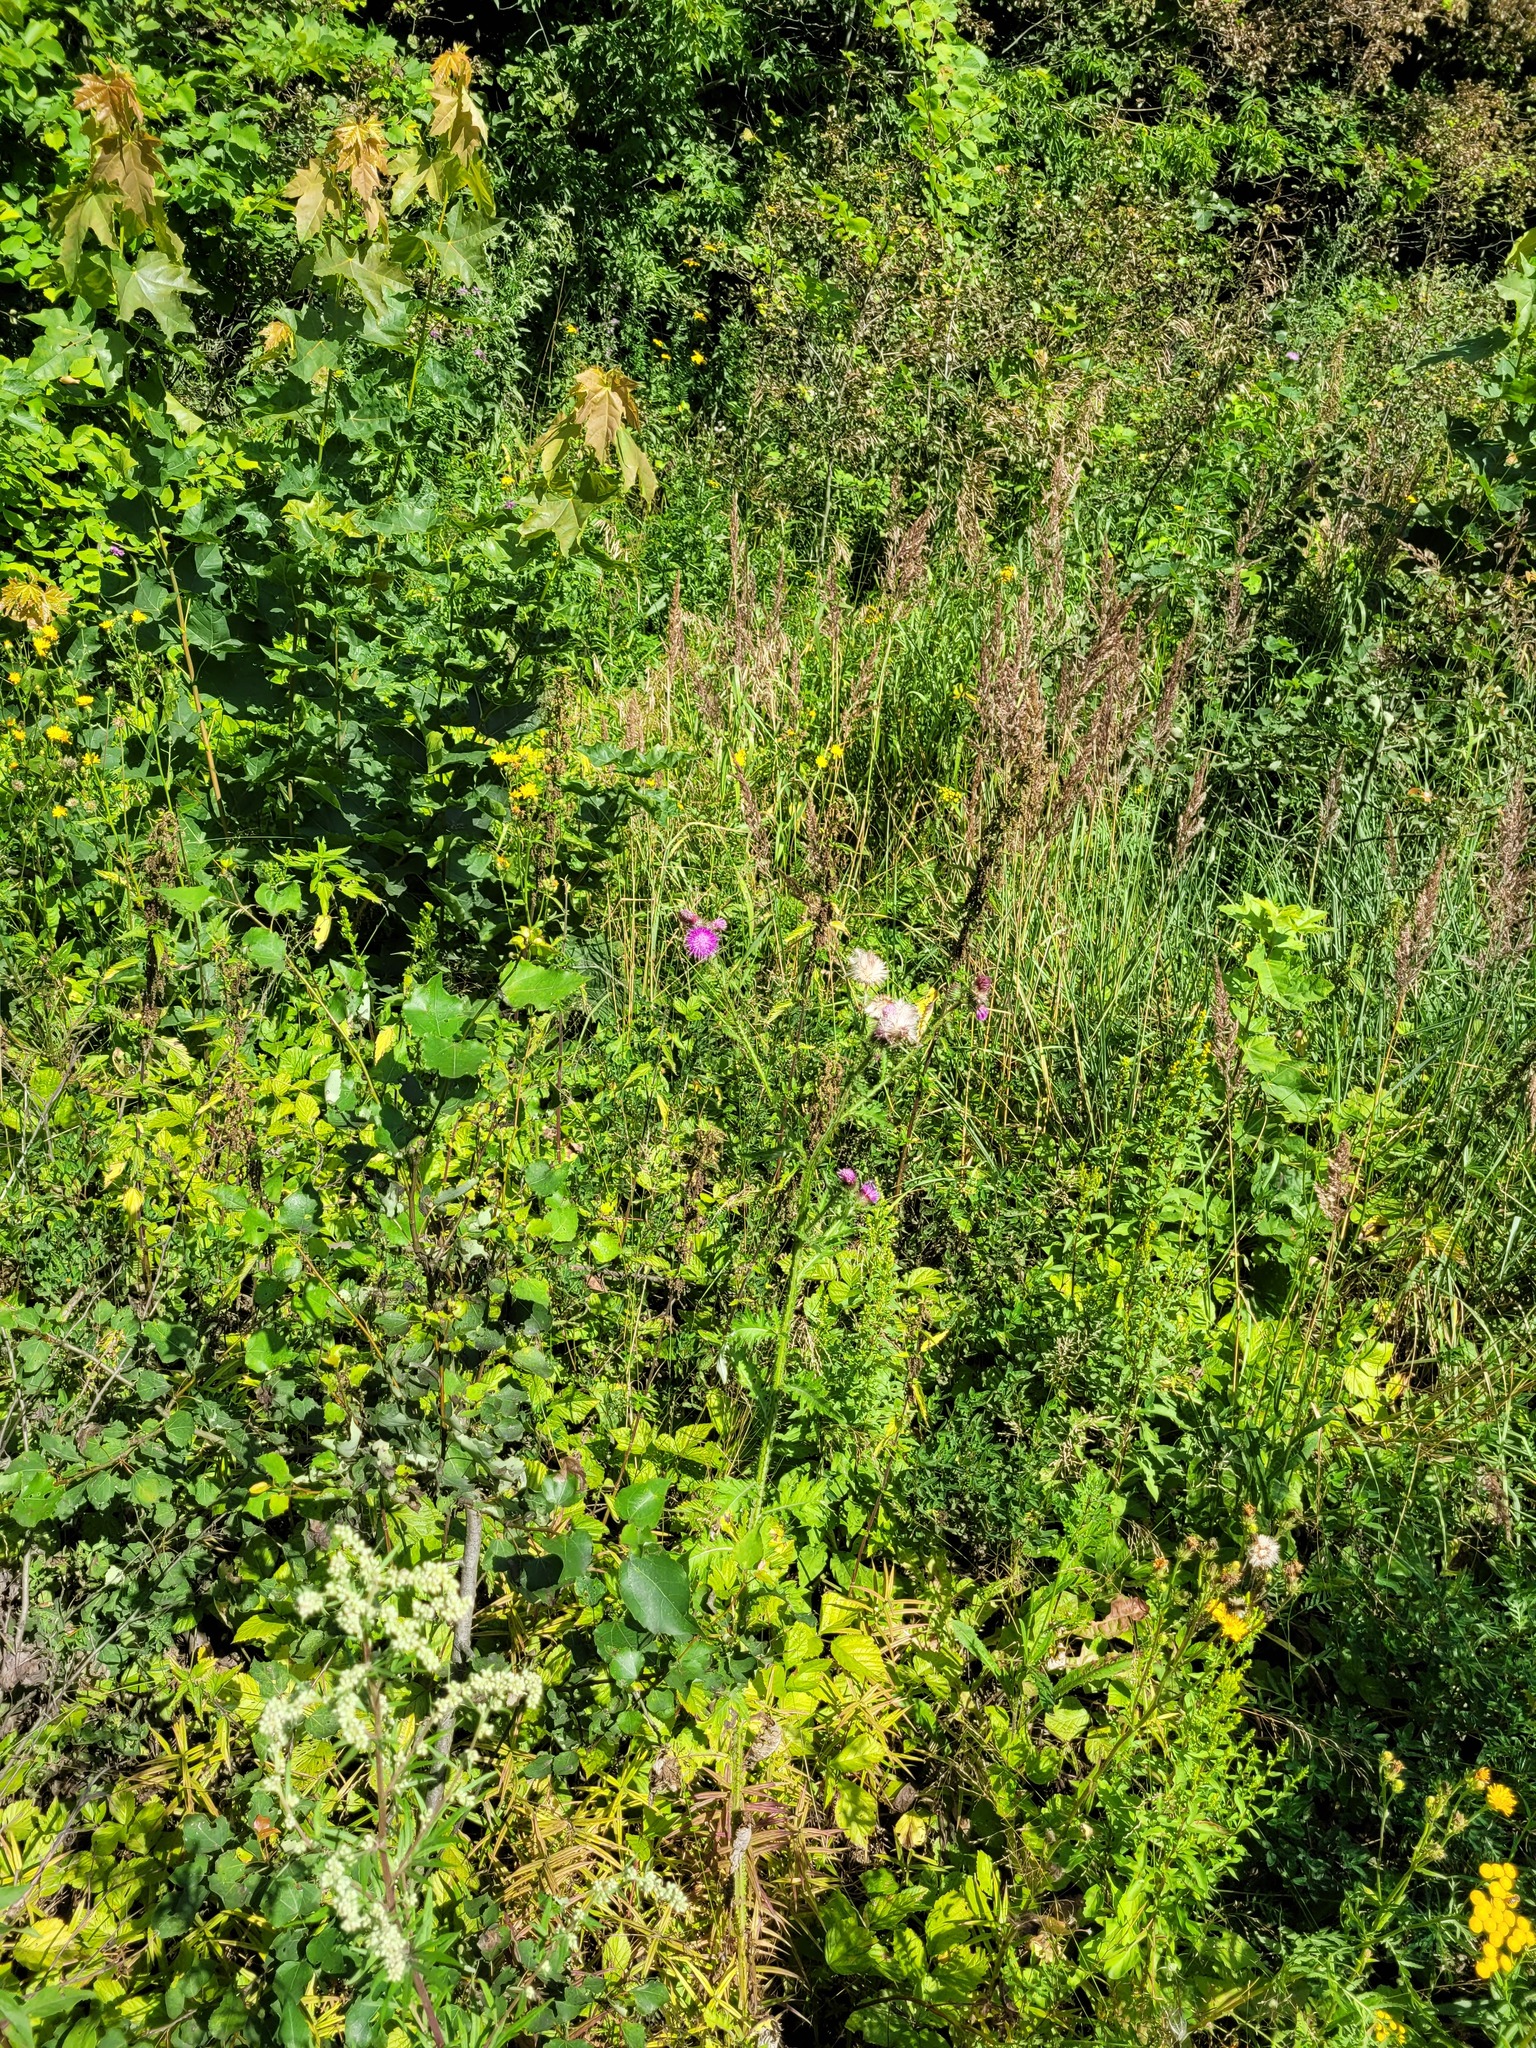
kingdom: Plantae
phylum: Tracheophyta
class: Magnoliopsida
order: Asterales
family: Asteraceae
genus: Carduus
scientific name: Carduus crispus
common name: Welted thistle
